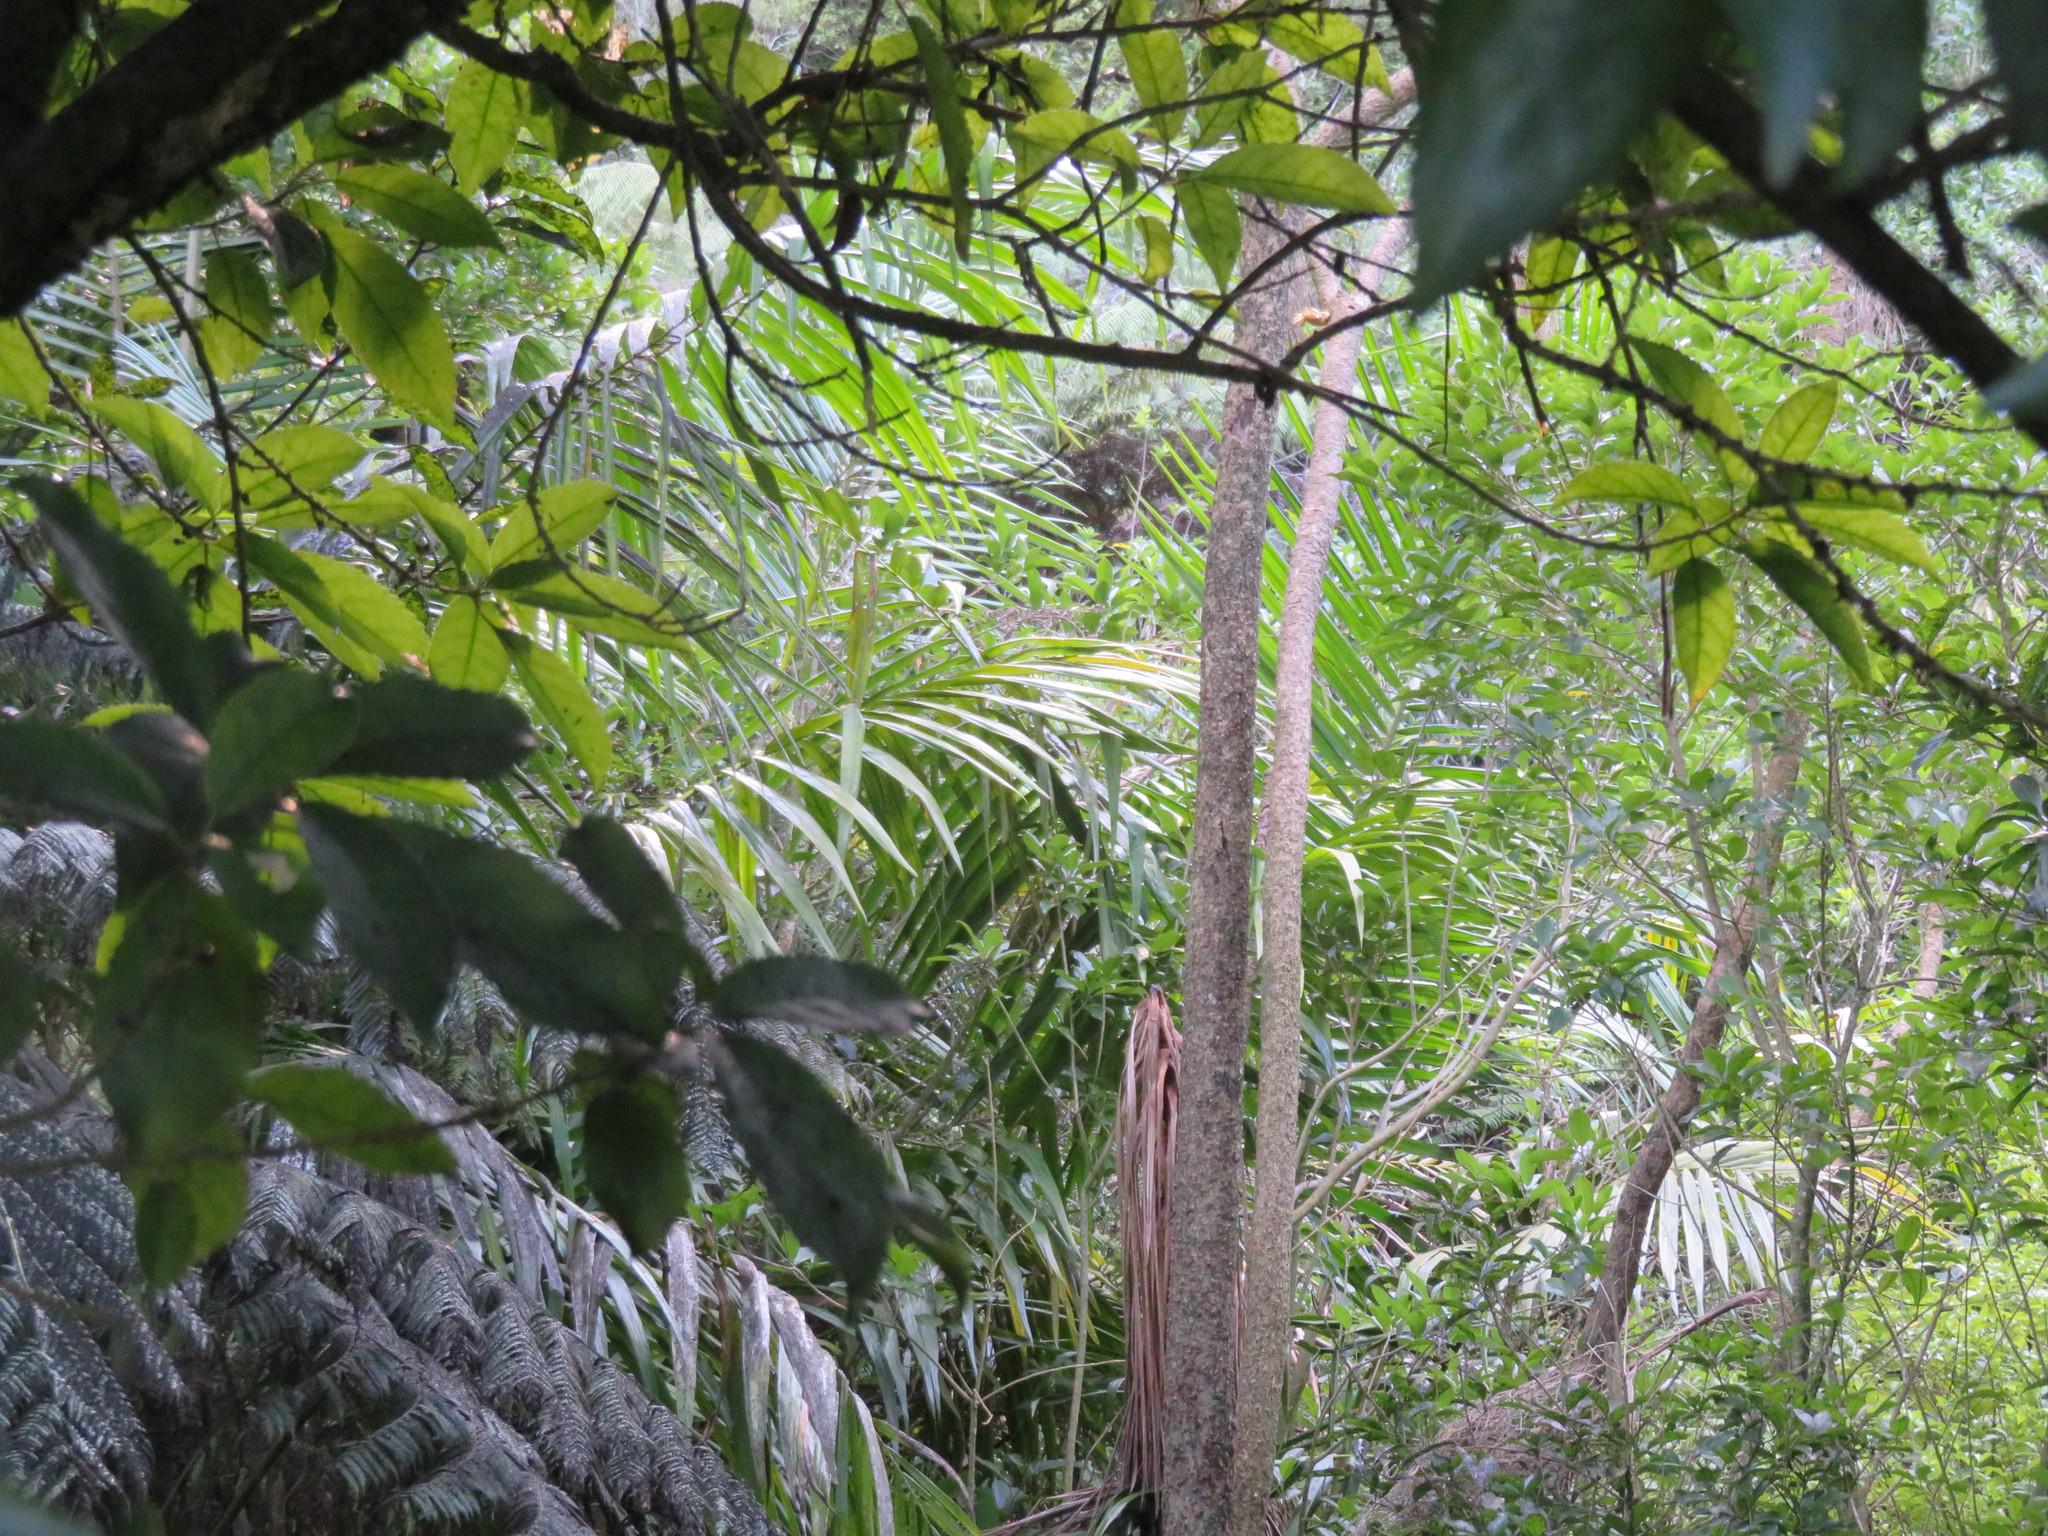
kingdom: Plantae
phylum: Tracheophyta
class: Liliopsida
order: Asparagales
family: Asparagaceae
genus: Cordyline
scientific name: Cordyline australis
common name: Cabbage-palm
